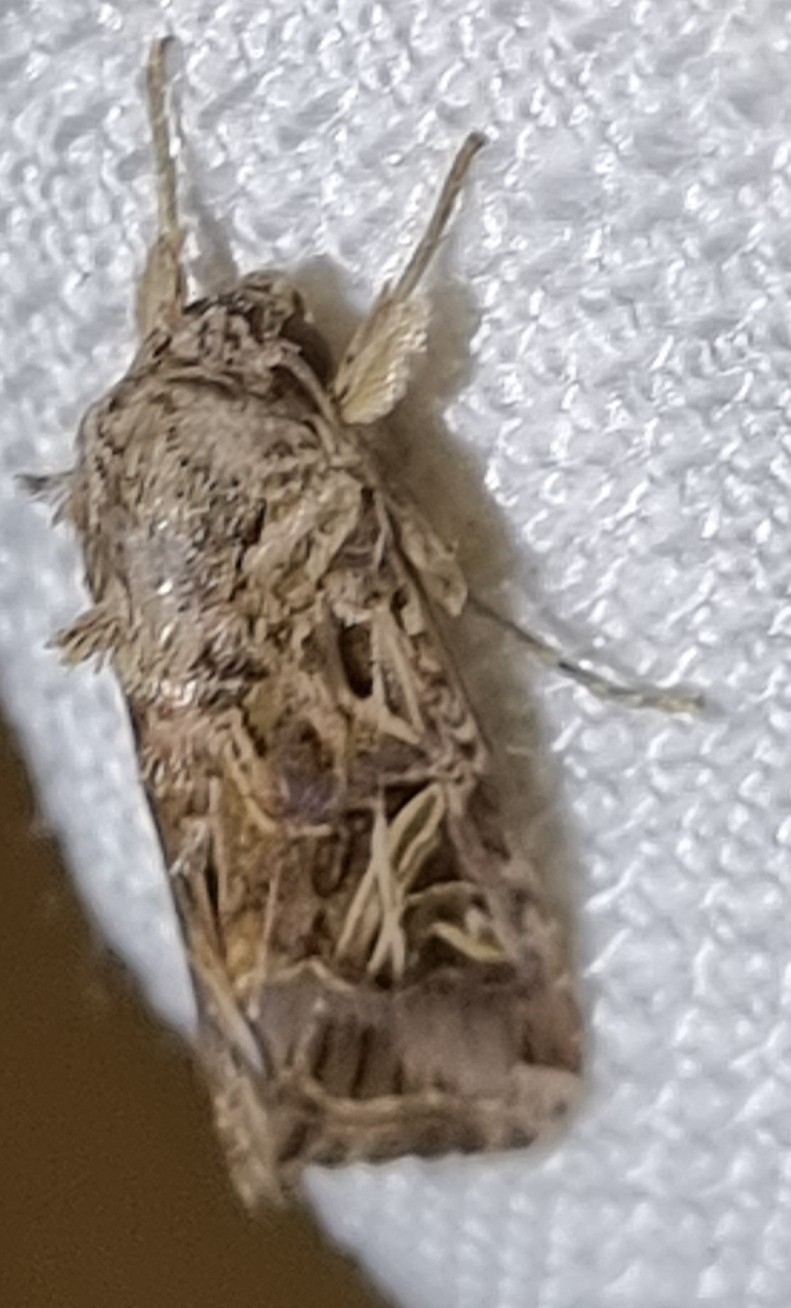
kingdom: Animalia
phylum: Arthropoda
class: Insecta
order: Lepidoptera
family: Noctuidae
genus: Spodoptera
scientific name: Spodoptera litura
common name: Asian cotton leafworm
